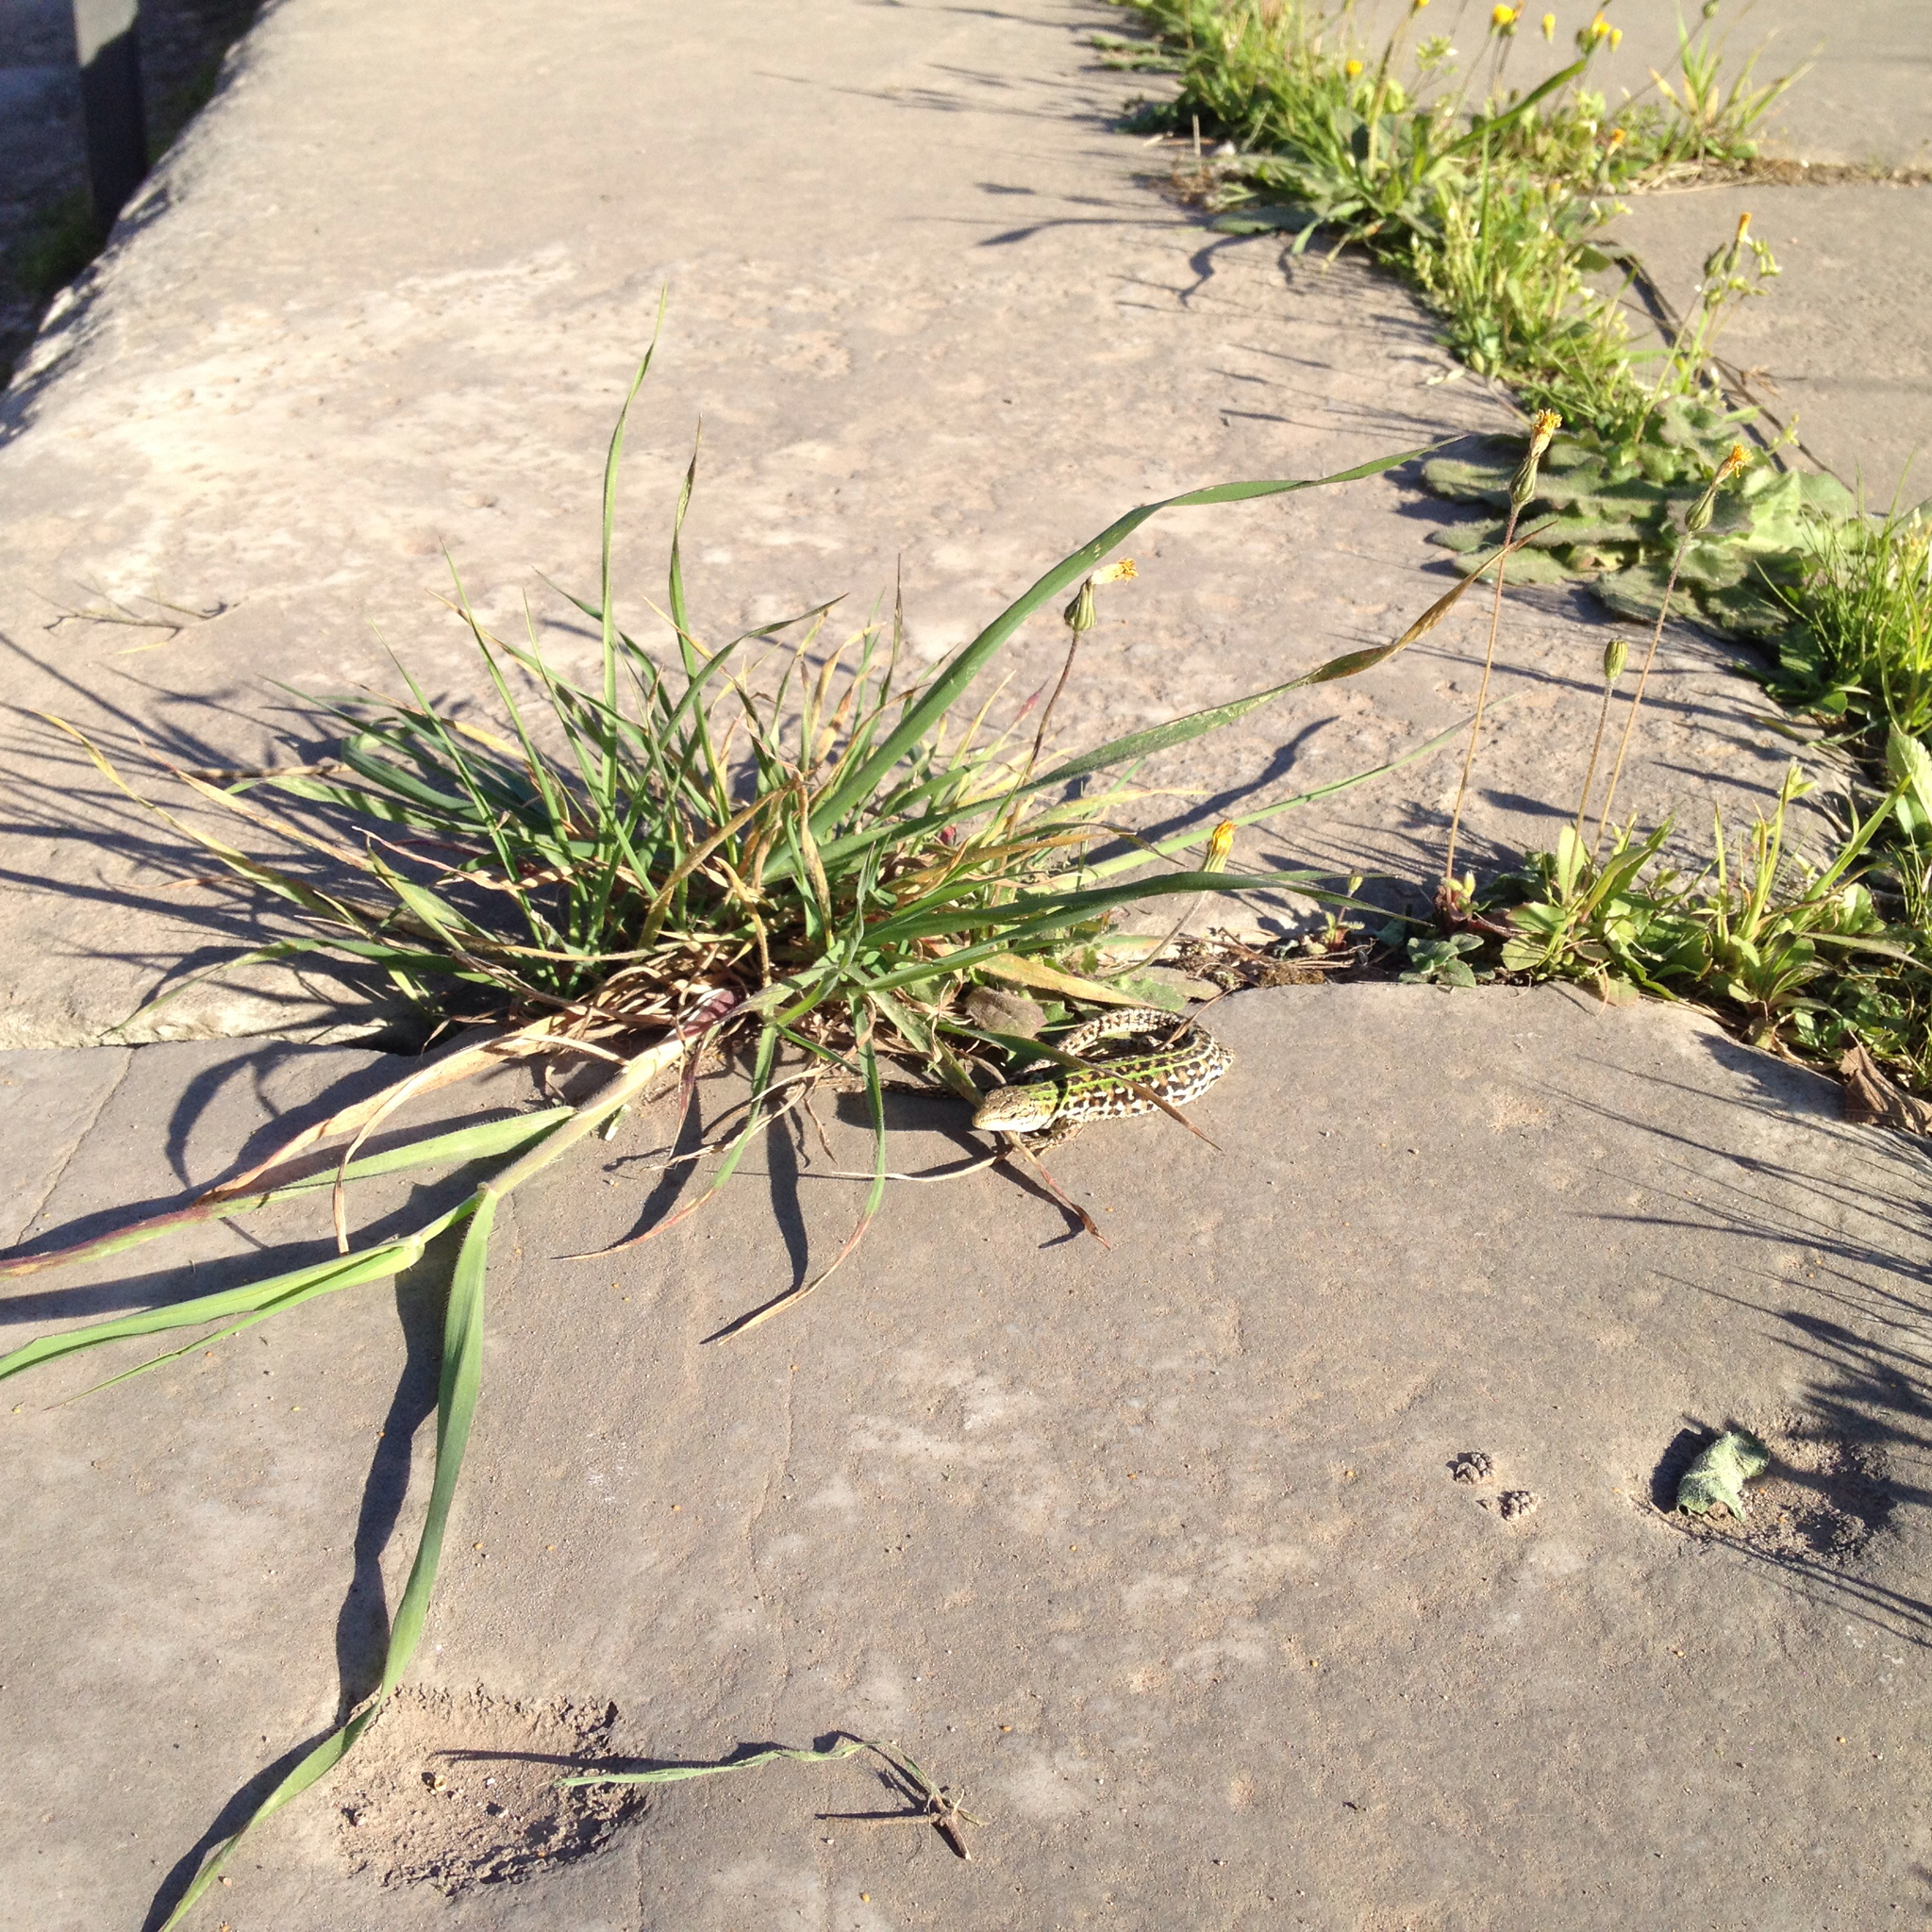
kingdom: Animalia
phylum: Chordata
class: Squamata
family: Lacertidae
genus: Podarcis
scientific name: Podarcis siculus
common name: Italian wall lizard
